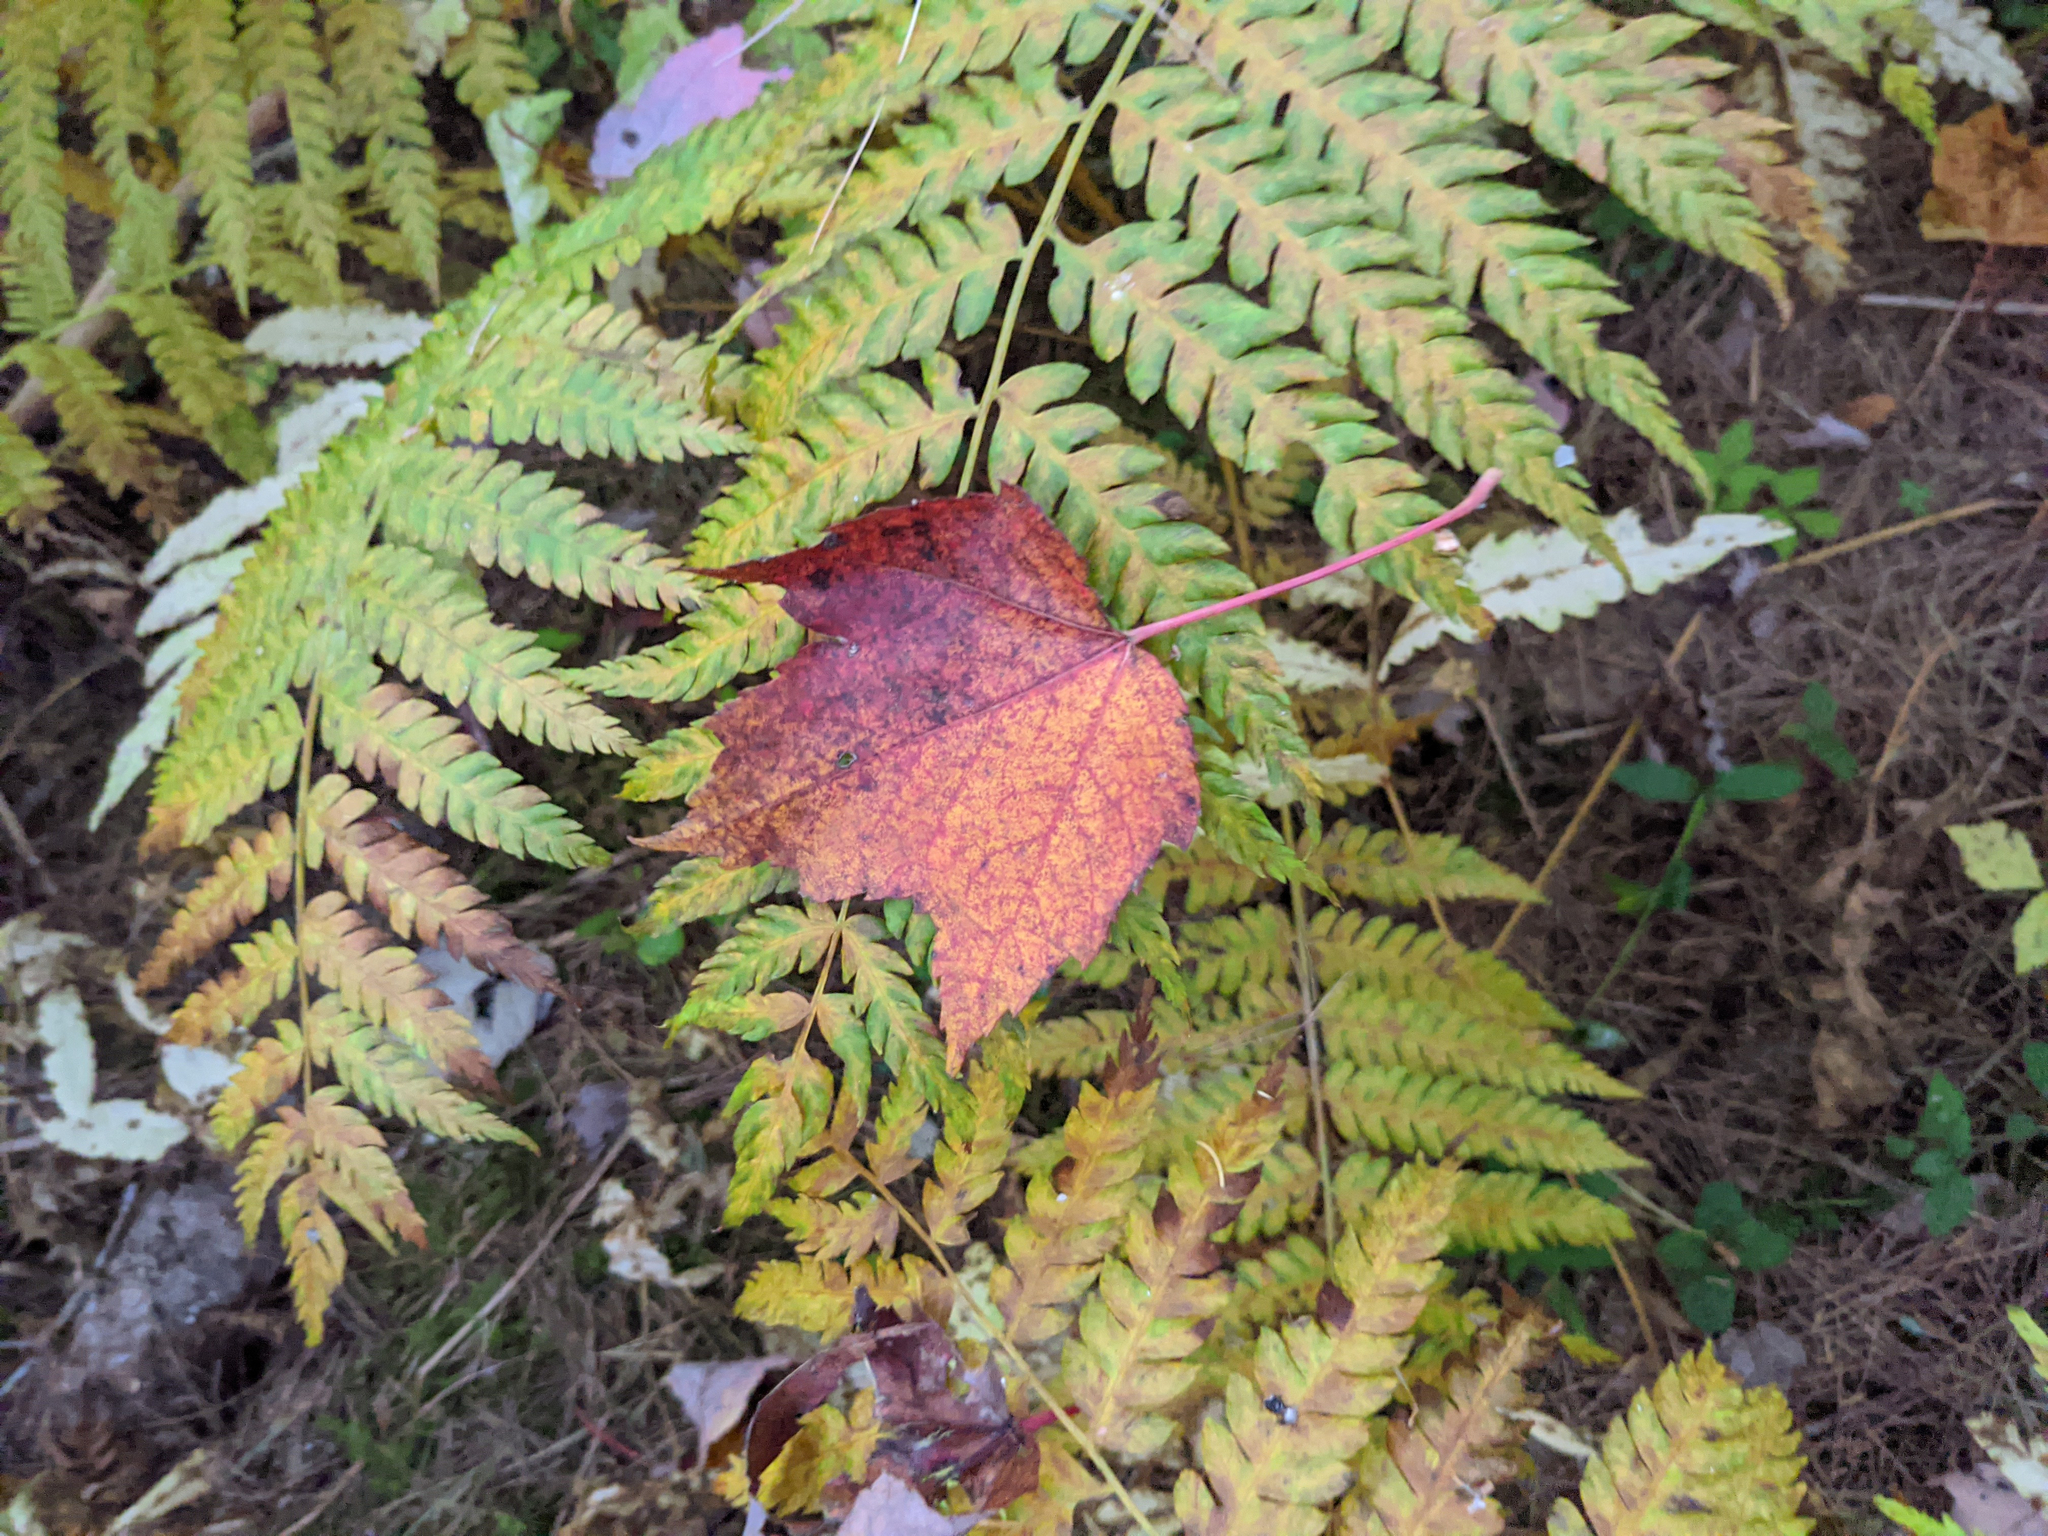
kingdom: Plantae
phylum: Tracheophyta
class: Magnoliopsida
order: Sapindales
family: Sapindaceae
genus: Acer
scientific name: Acer rubrum
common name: Red maple
